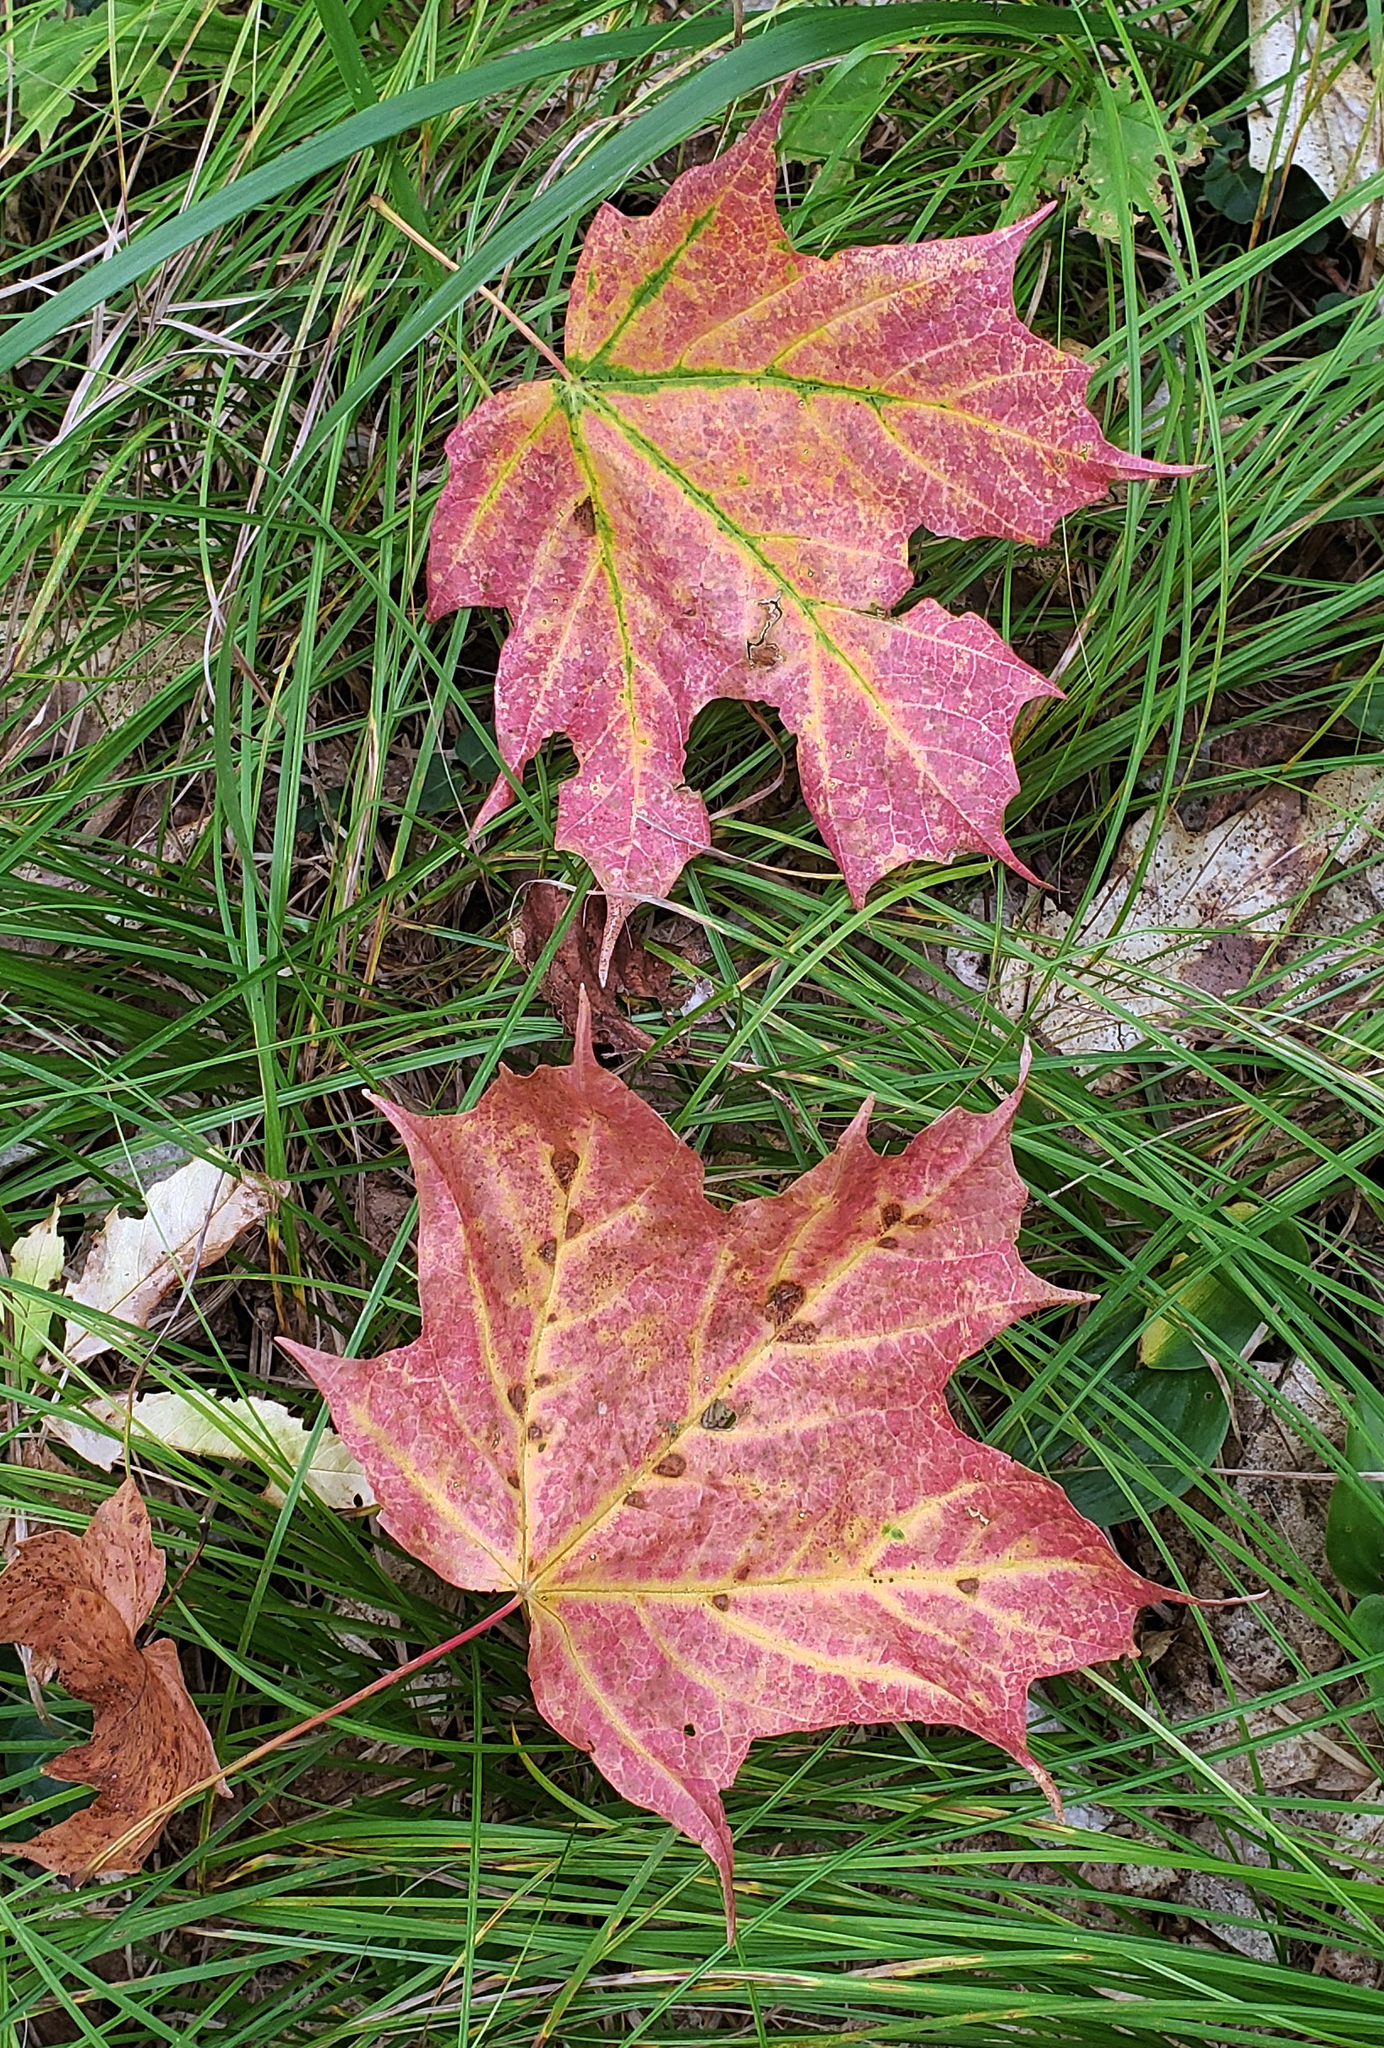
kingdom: Plantae
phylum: Tracheophyta
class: Magnoliopsida
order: Sapindales
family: Sapindaceae
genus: Acer
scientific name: Acer saccharum
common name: Sugar maple
